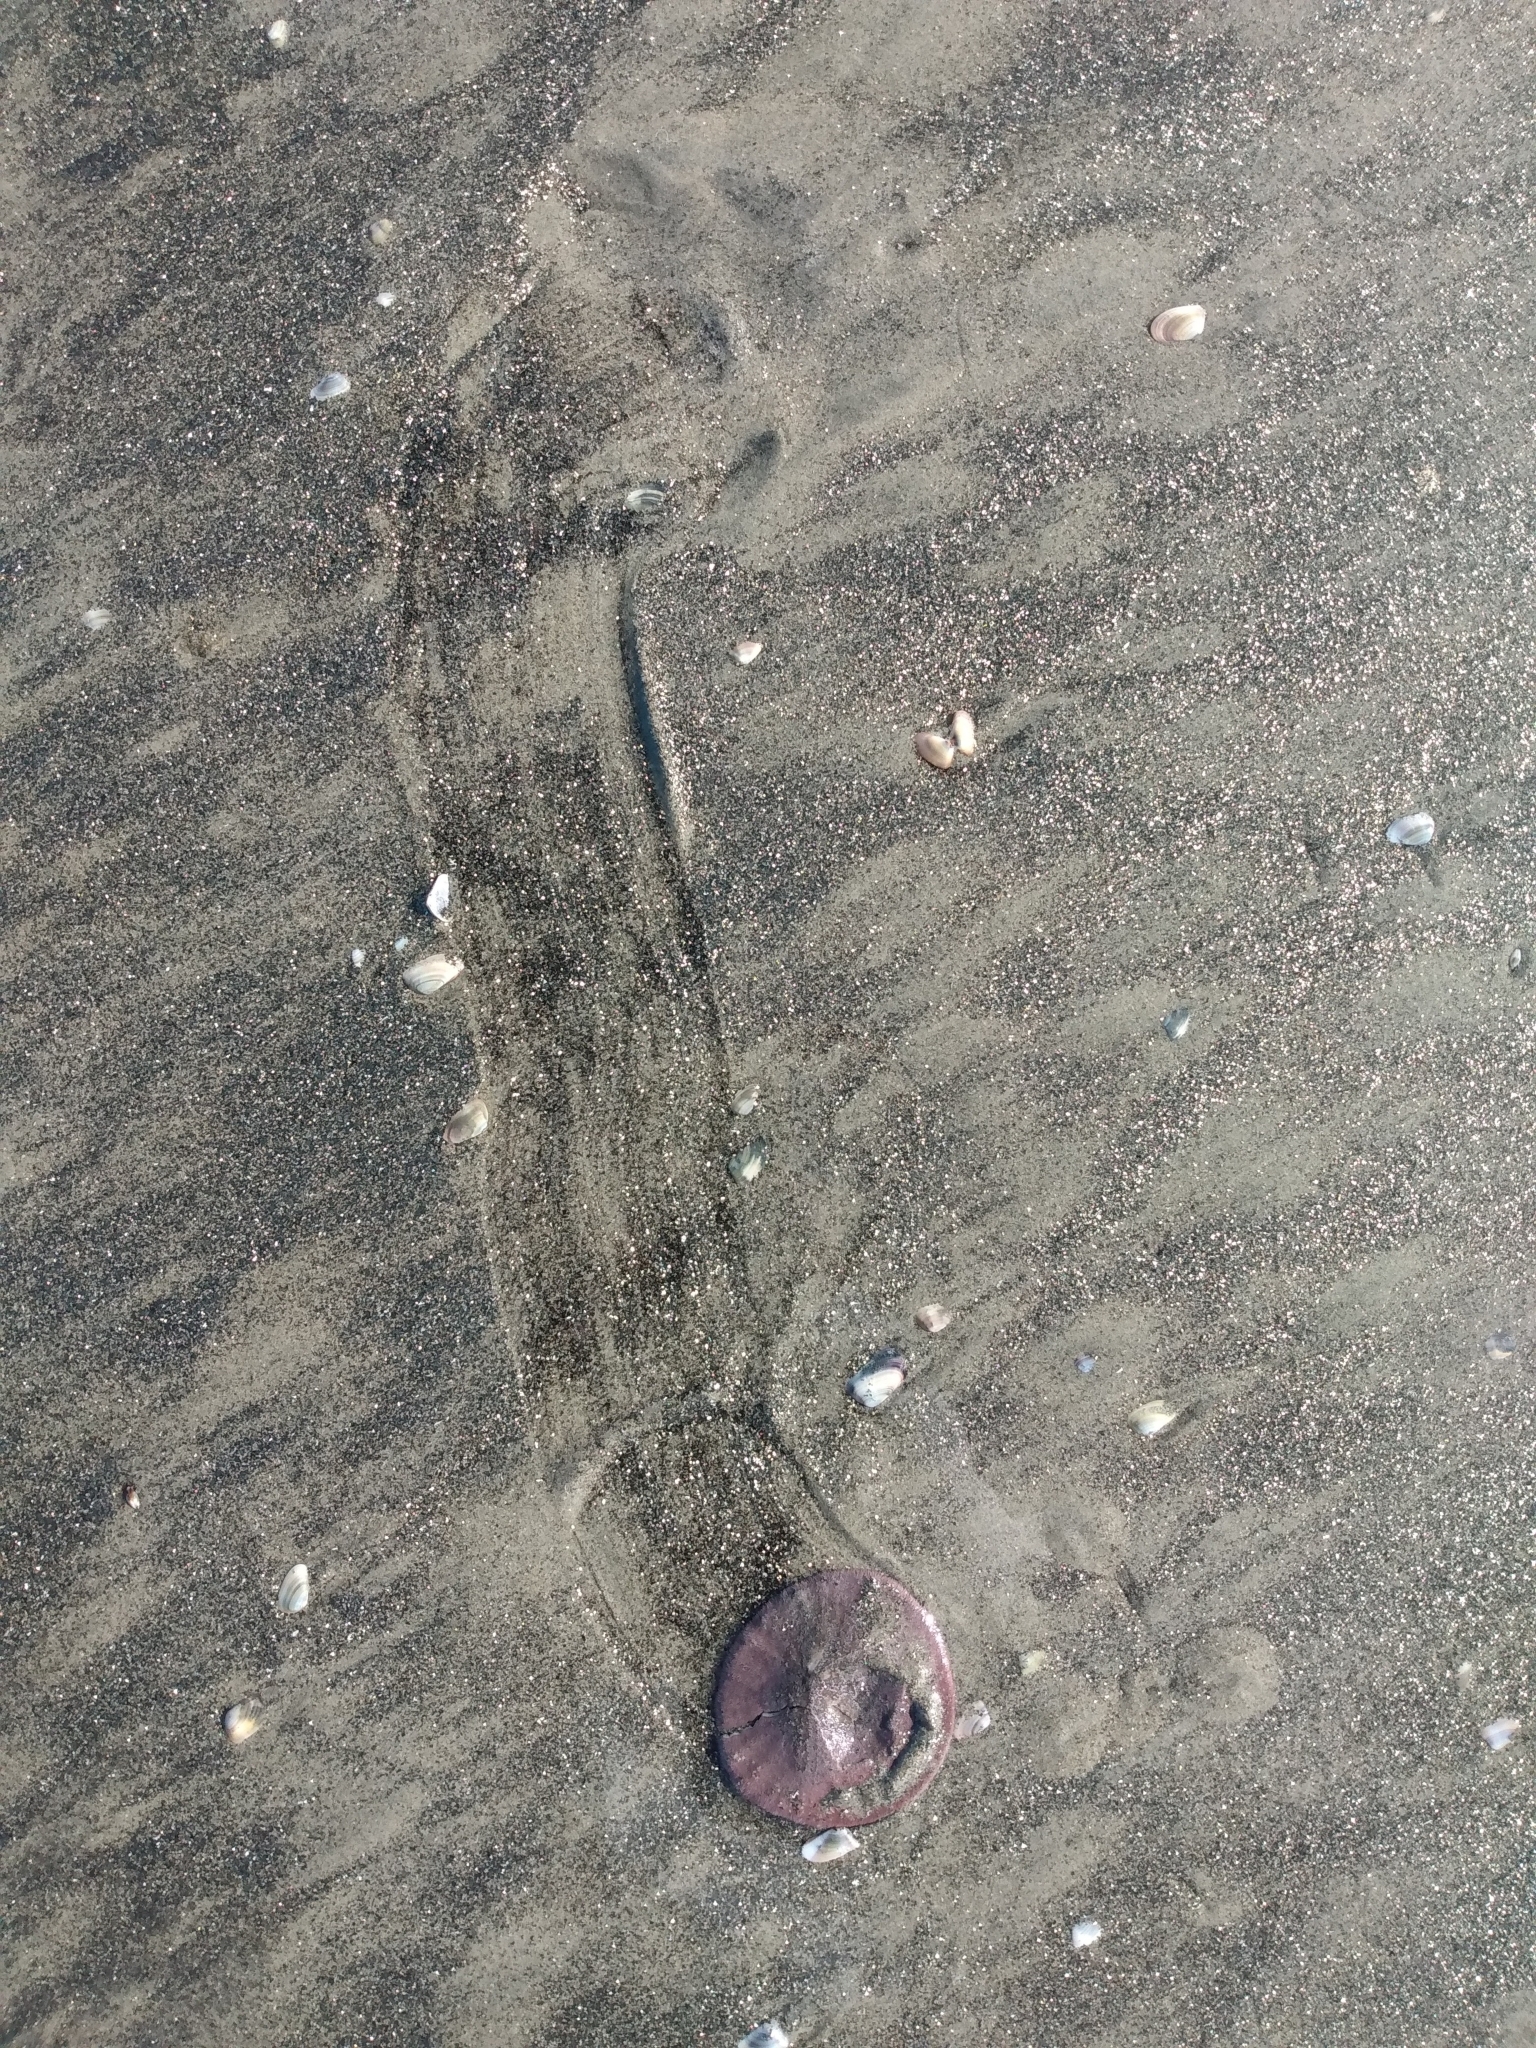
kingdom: Animalia
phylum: Echinodermata
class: Echinoidea
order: Echinolampadacea
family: Dendrasteridae
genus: Dendraster
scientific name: Dendraster excentricus
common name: Eccentric sand dollar sea urchin
